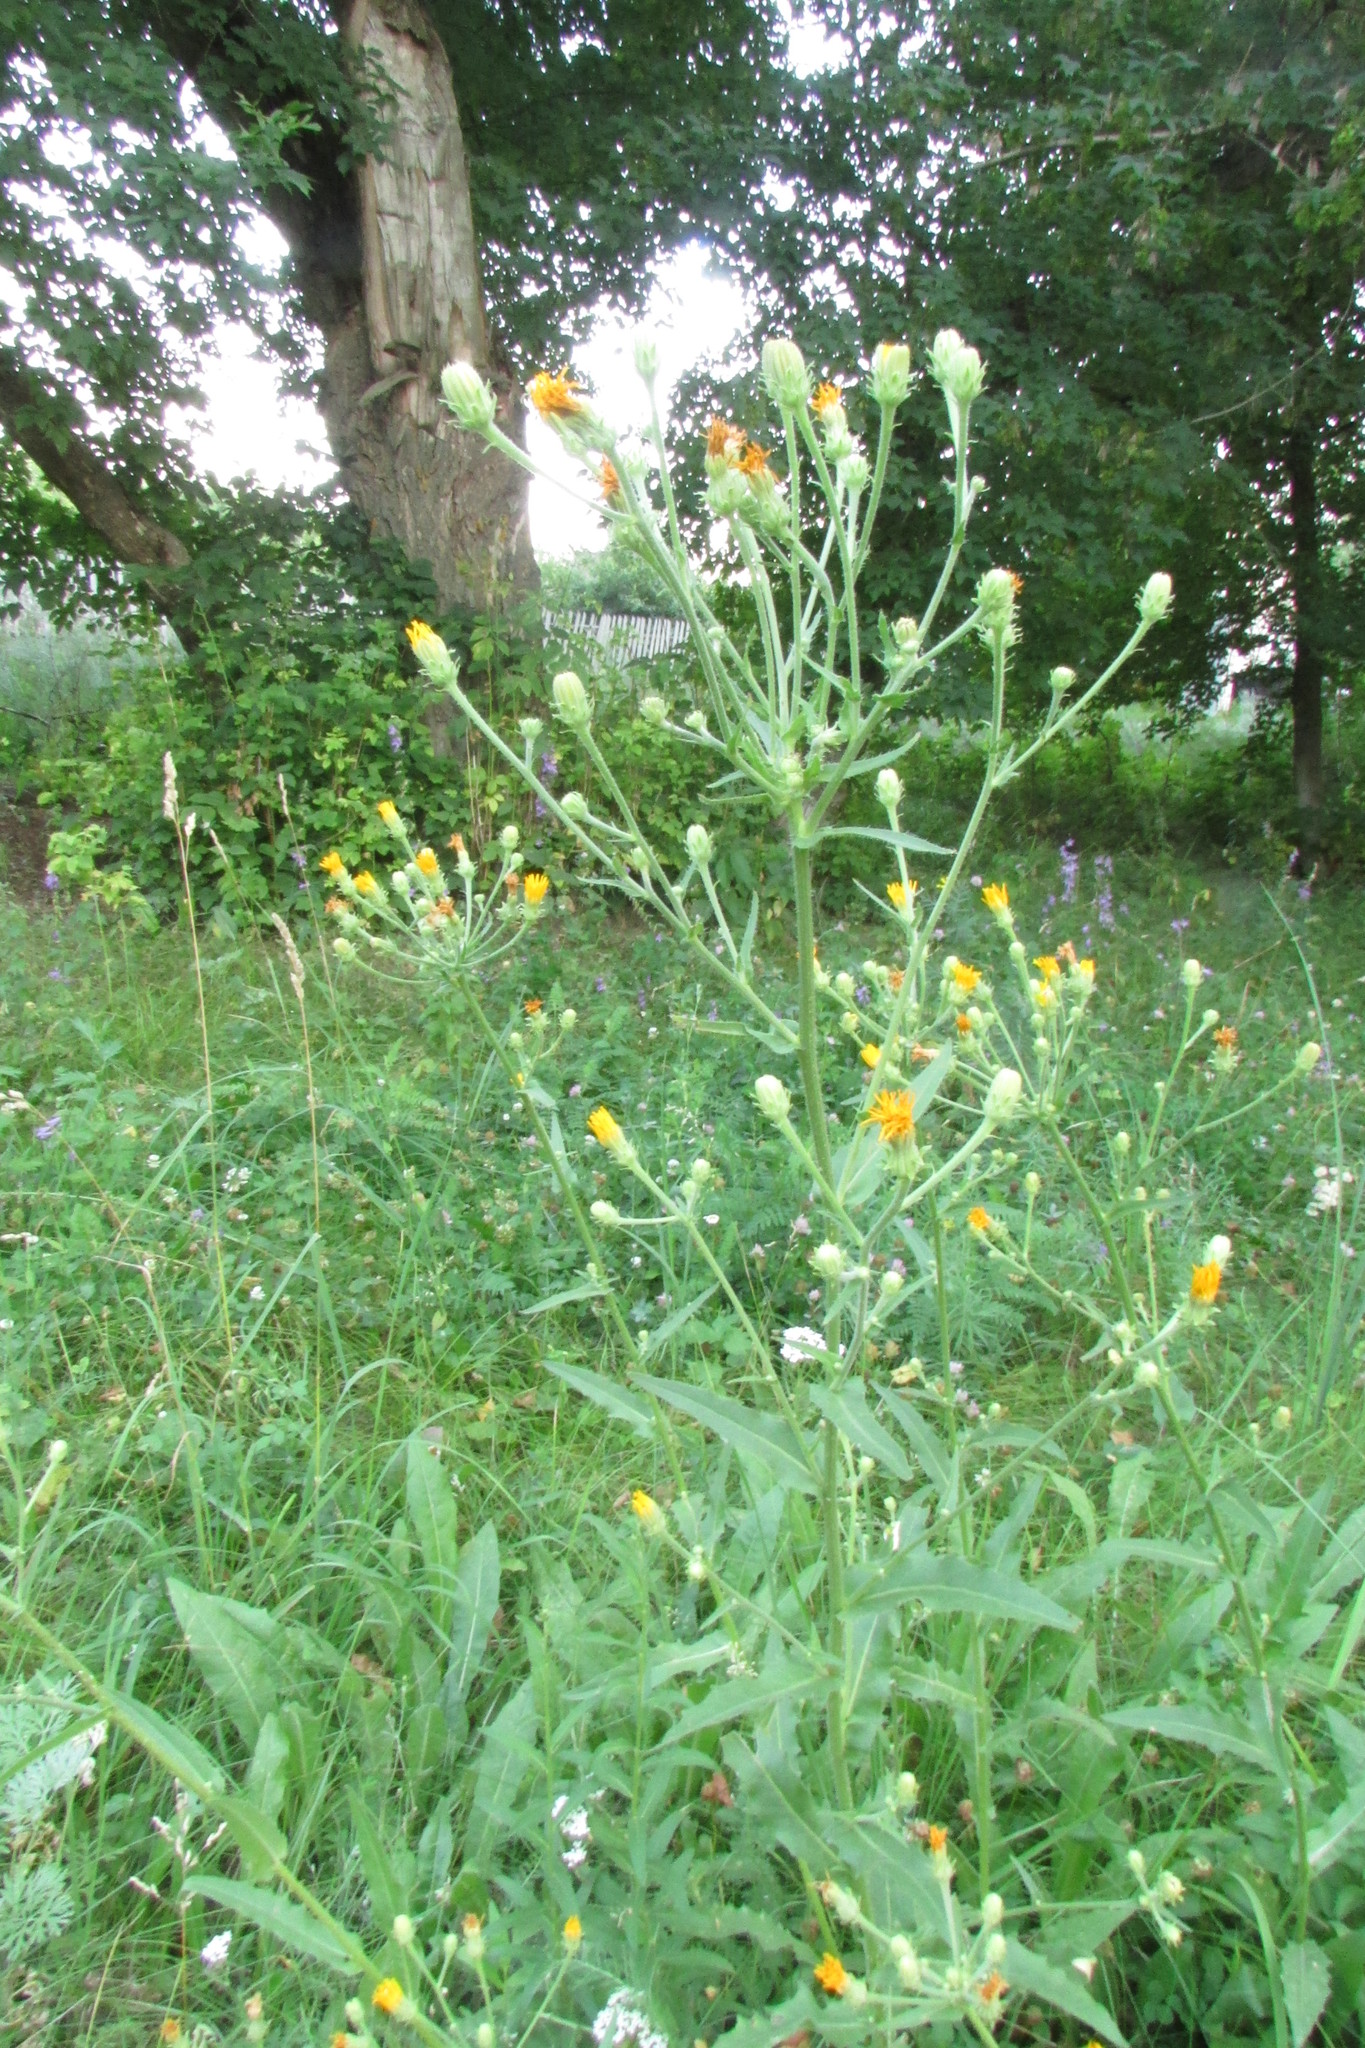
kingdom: Plantae
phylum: Tracheophyta
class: Magnoliopsida
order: Asterales
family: Asteraceae
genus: Picris
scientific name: Picris hieracioides
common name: Hawkweed oxtongue
